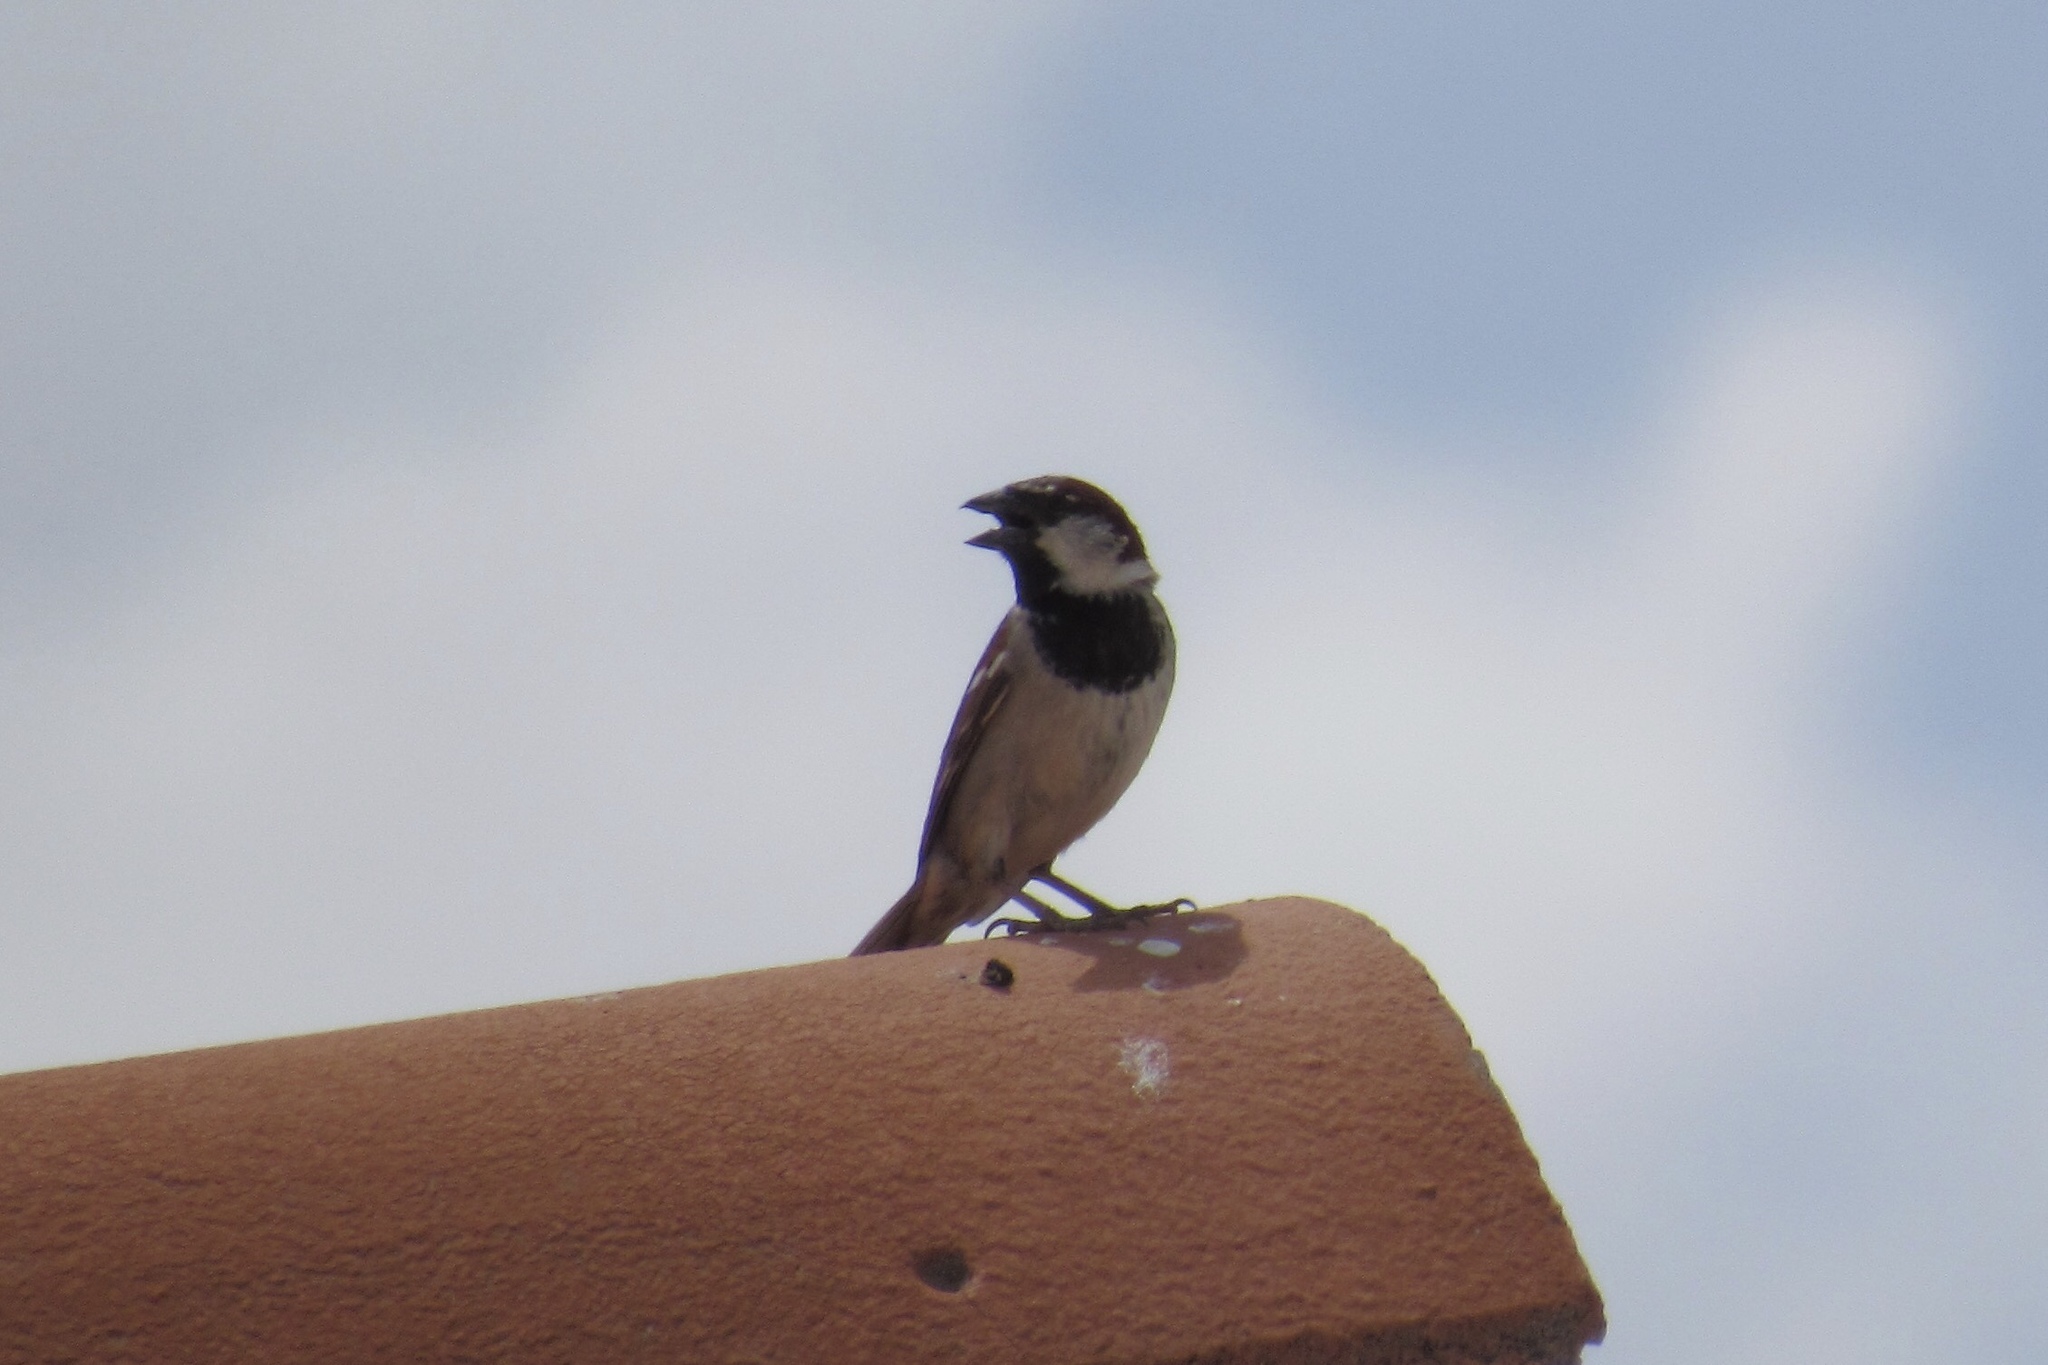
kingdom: Animalia
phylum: Chordata
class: Aves
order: Passeriformes
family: Passeridae
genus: Passer
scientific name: Passer domesticus
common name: House sparrow
